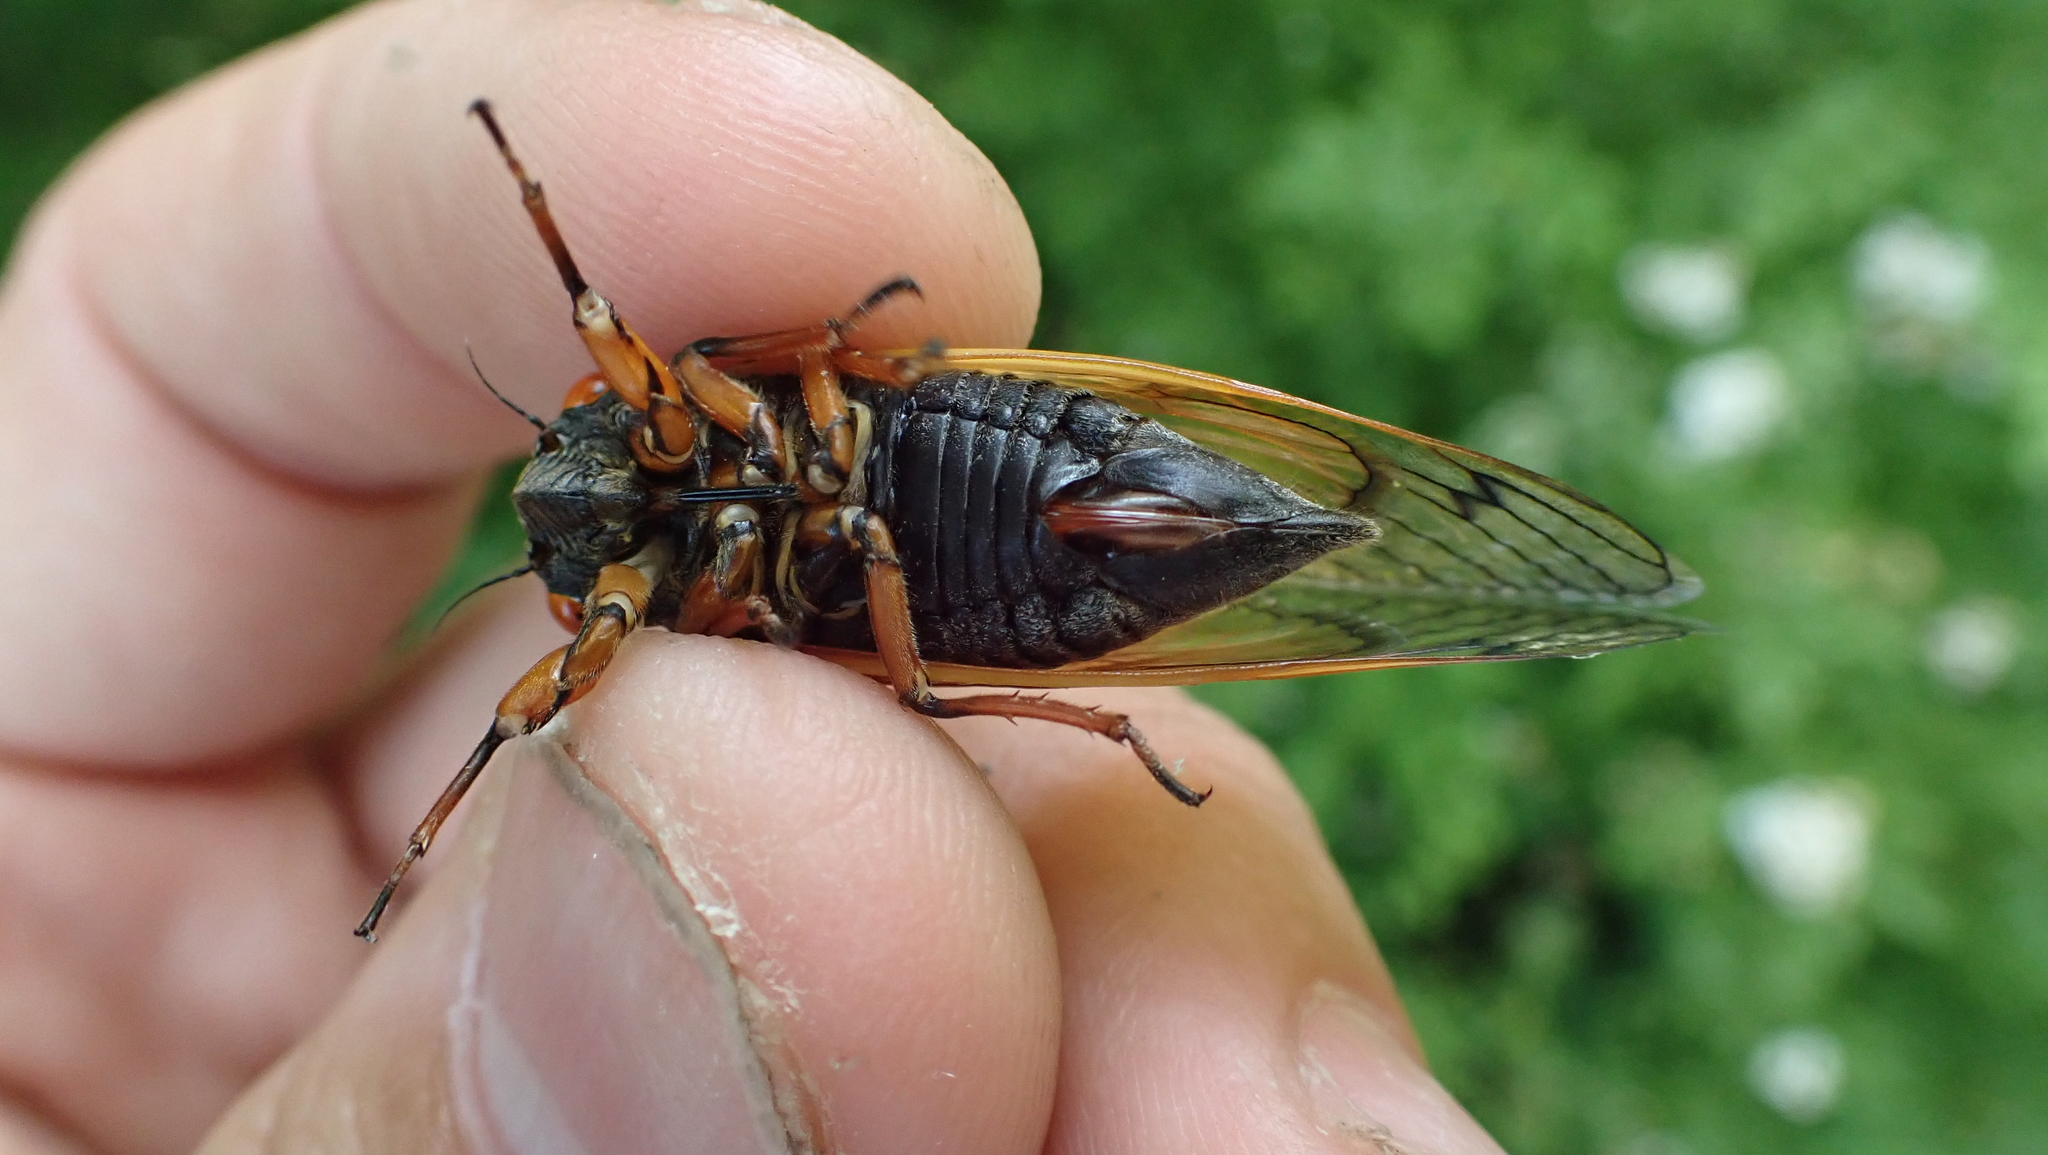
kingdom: Animalia
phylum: Arthropoda
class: Insecta
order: Hemiptera
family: Cicadidae
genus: Magicicada
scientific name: Magicicada cassini
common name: Cassin's 17-year cicada
